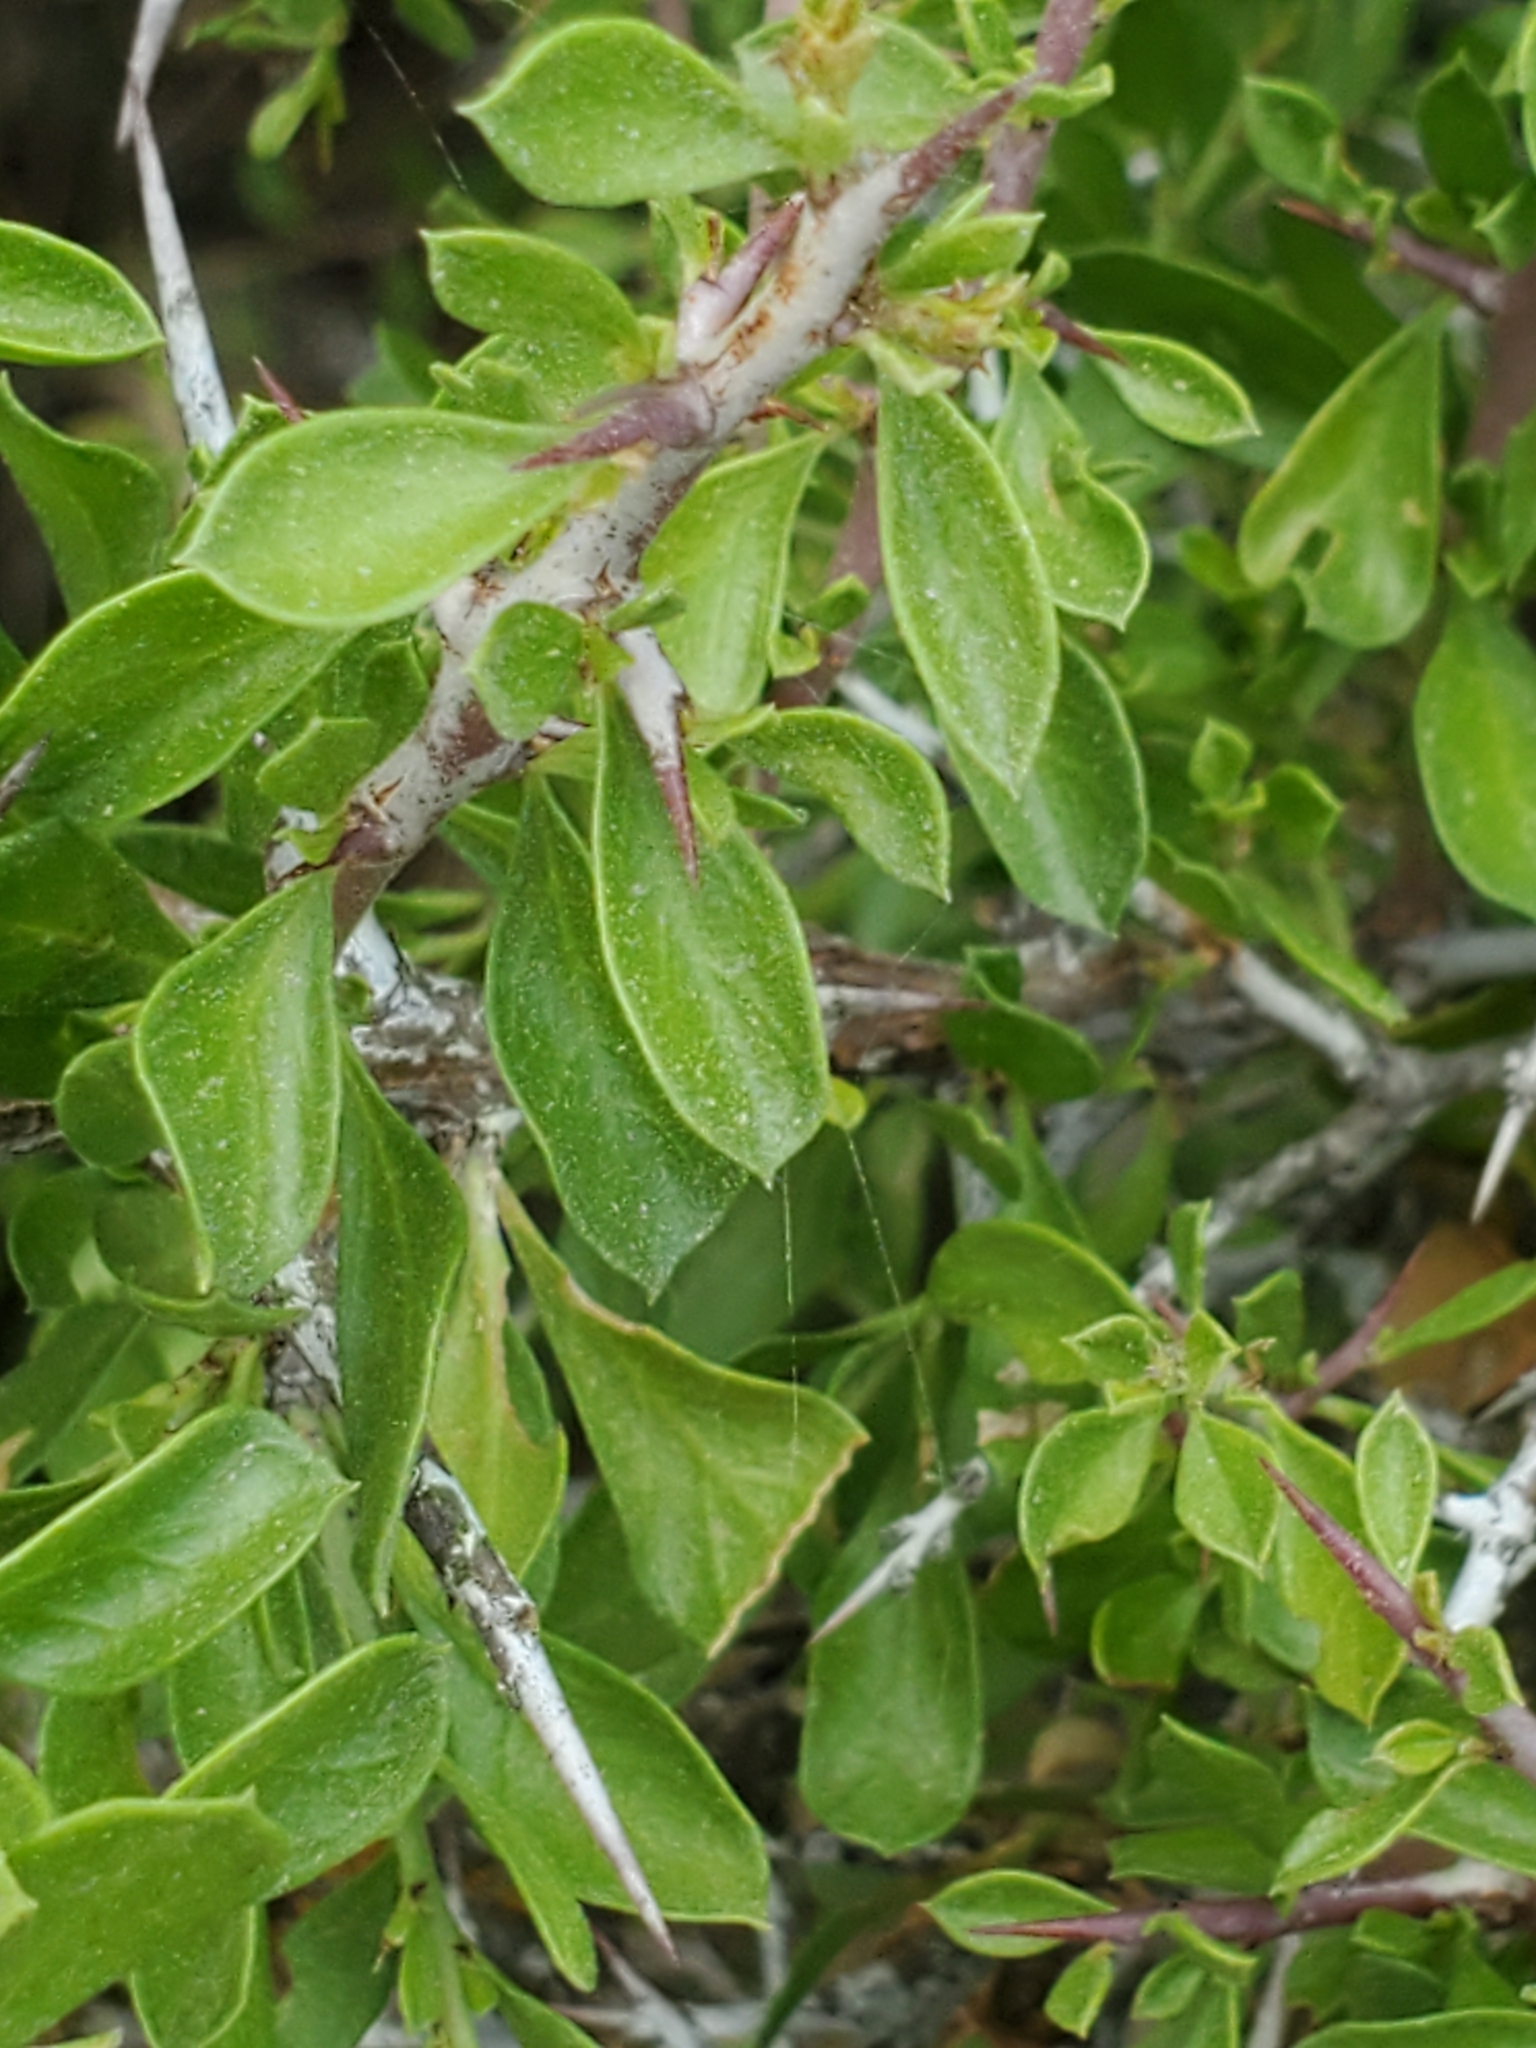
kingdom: Plantae
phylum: Tracheophyta
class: Magnoliopsida
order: Rosales
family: Rhamnaceae
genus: Condalia
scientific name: Condalia viridis
